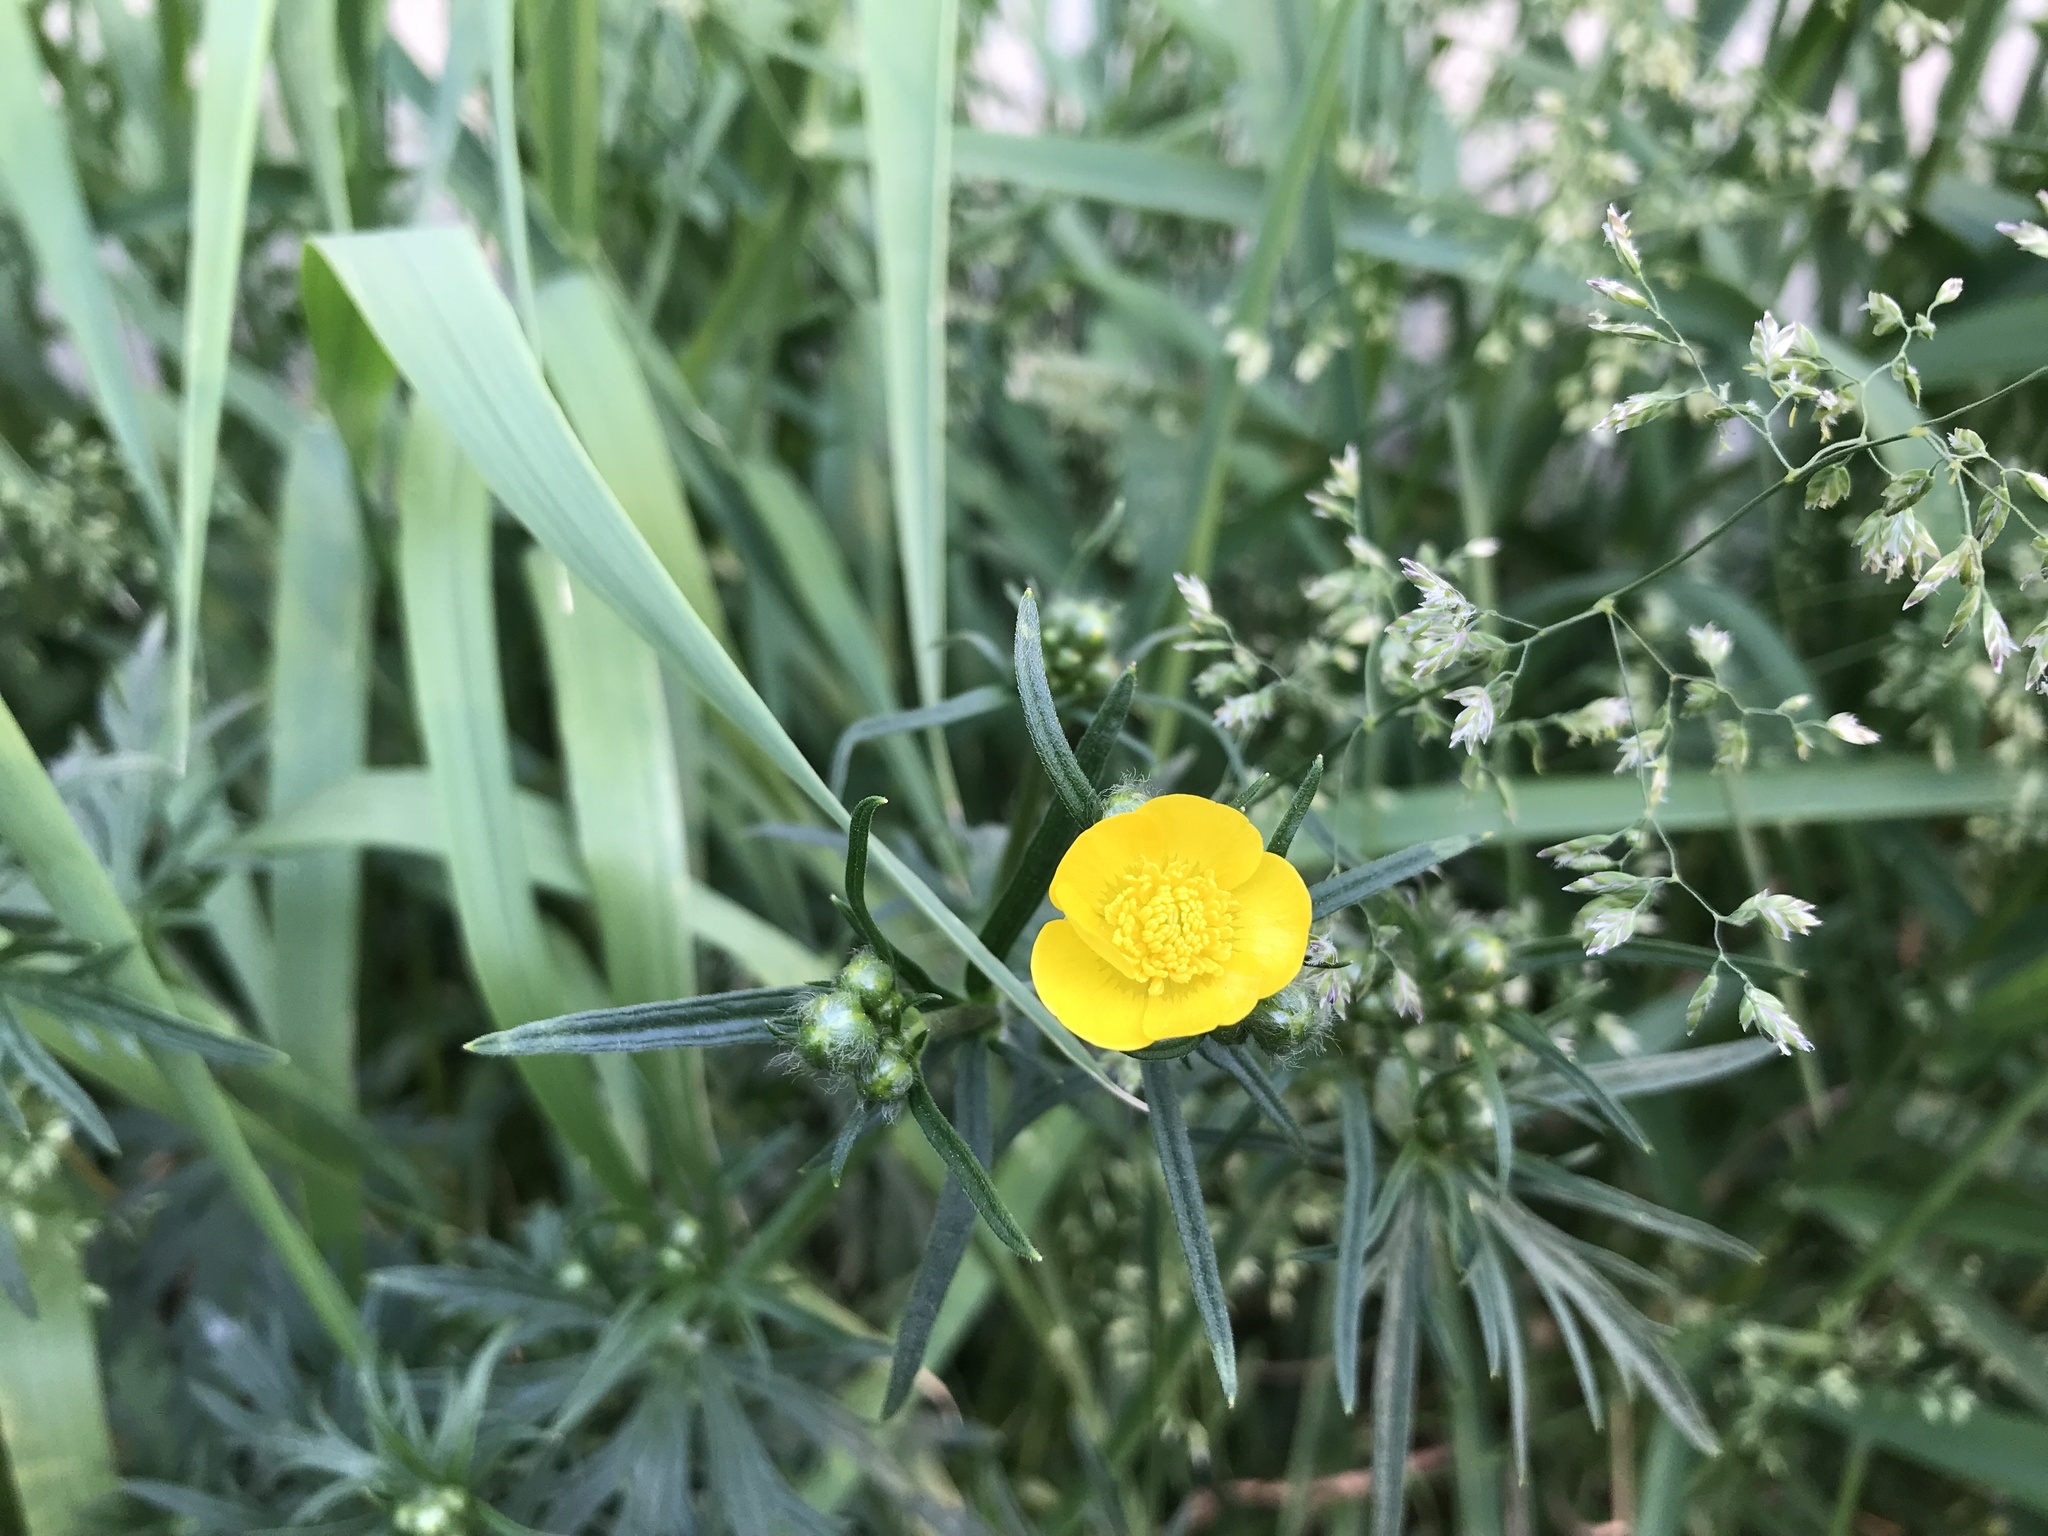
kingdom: Plantae
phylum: Tracheophyta
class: Magnoliopsida
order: Ranunculales
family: Ranunculaceae
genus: Ranunculus
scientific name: Ranunculus acris
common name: Meadow buttercup
